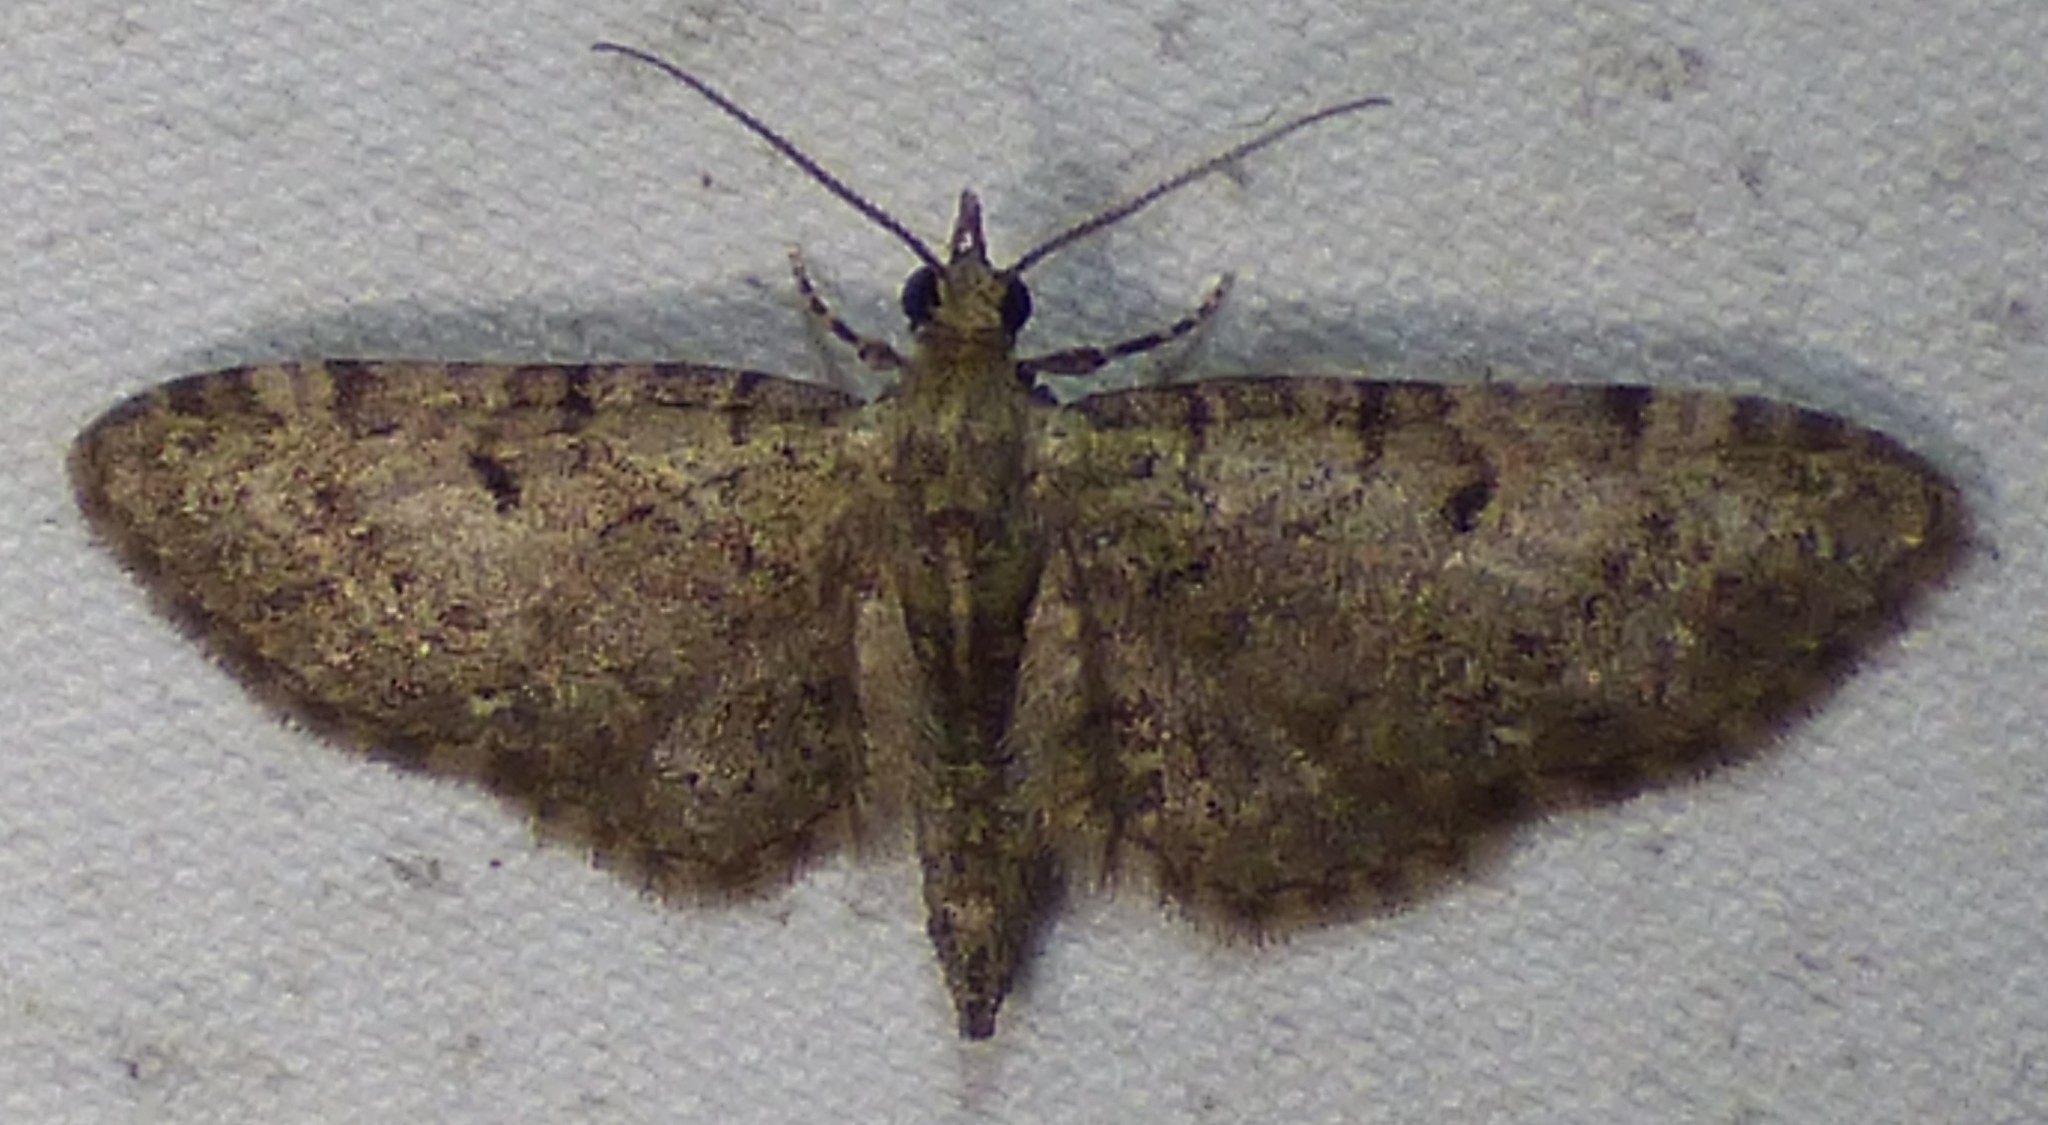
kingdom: Animalia
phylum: Arthropoda
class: Insecta
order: Lepidoptera
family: Geometridae
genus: Eupithecia
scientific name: Eupithecia miserulata
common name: Common eupithecia
